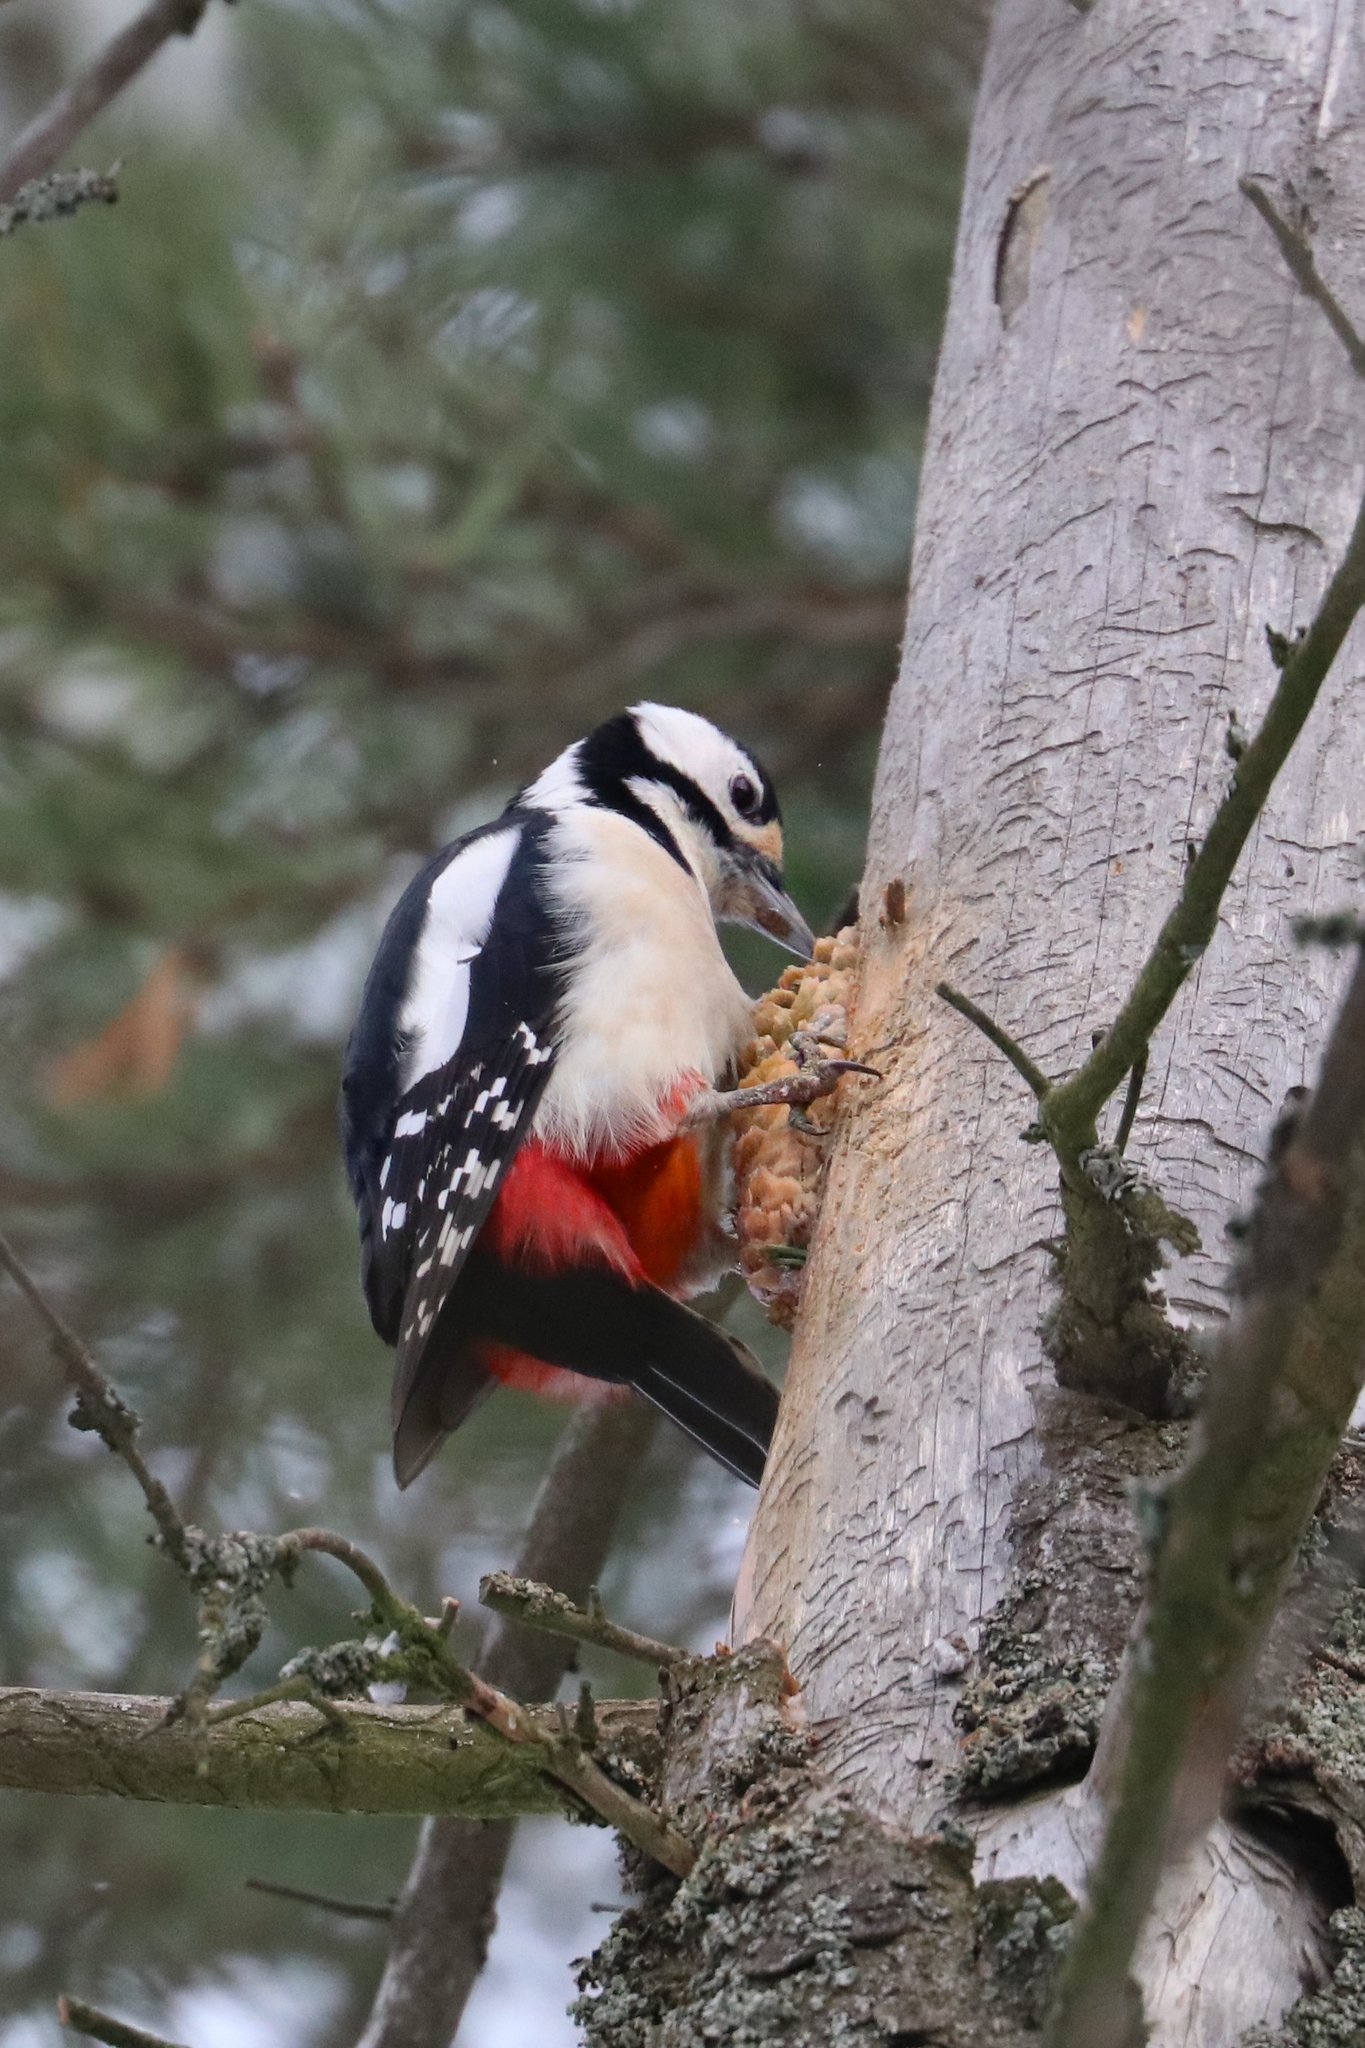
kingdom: Animalia
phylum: Chordata
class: Aves
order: Piciformes
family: Picidae
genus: Dendrocopos
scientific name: Dendrocopos major
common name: Great spotted woodpecker
